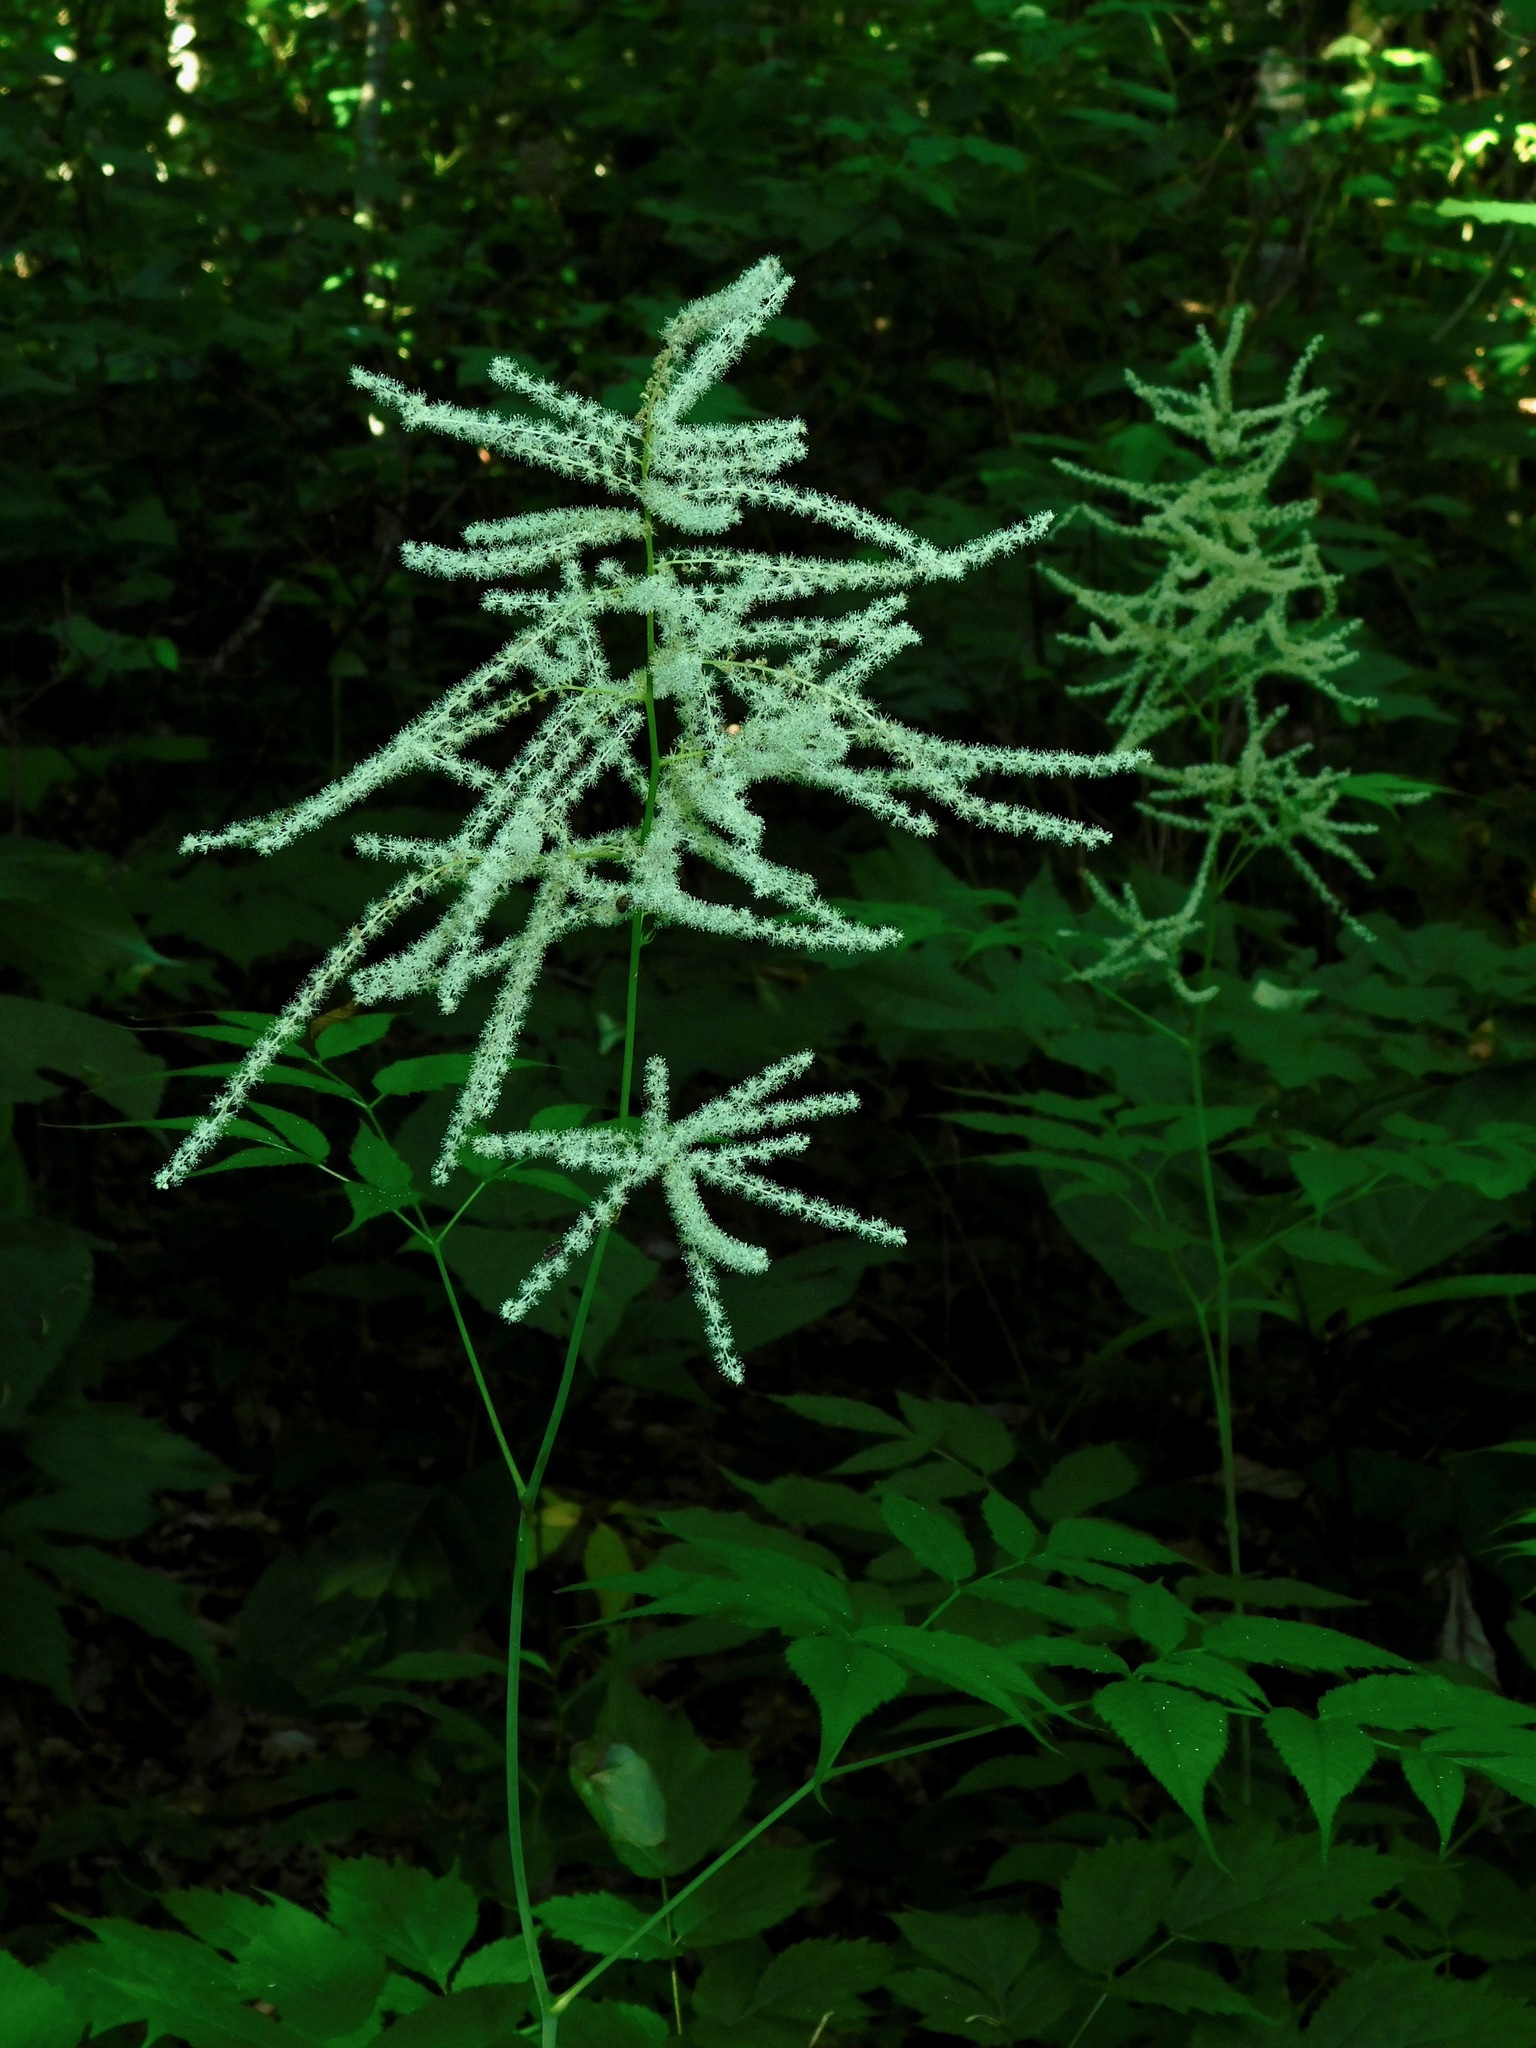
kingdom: Plantae
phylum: Tracheophyta
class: Magnoliopsida
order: Rosales
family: Rosaceae
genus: Aruncus
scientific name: Aruncus dioicus
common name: Buck's-beard
